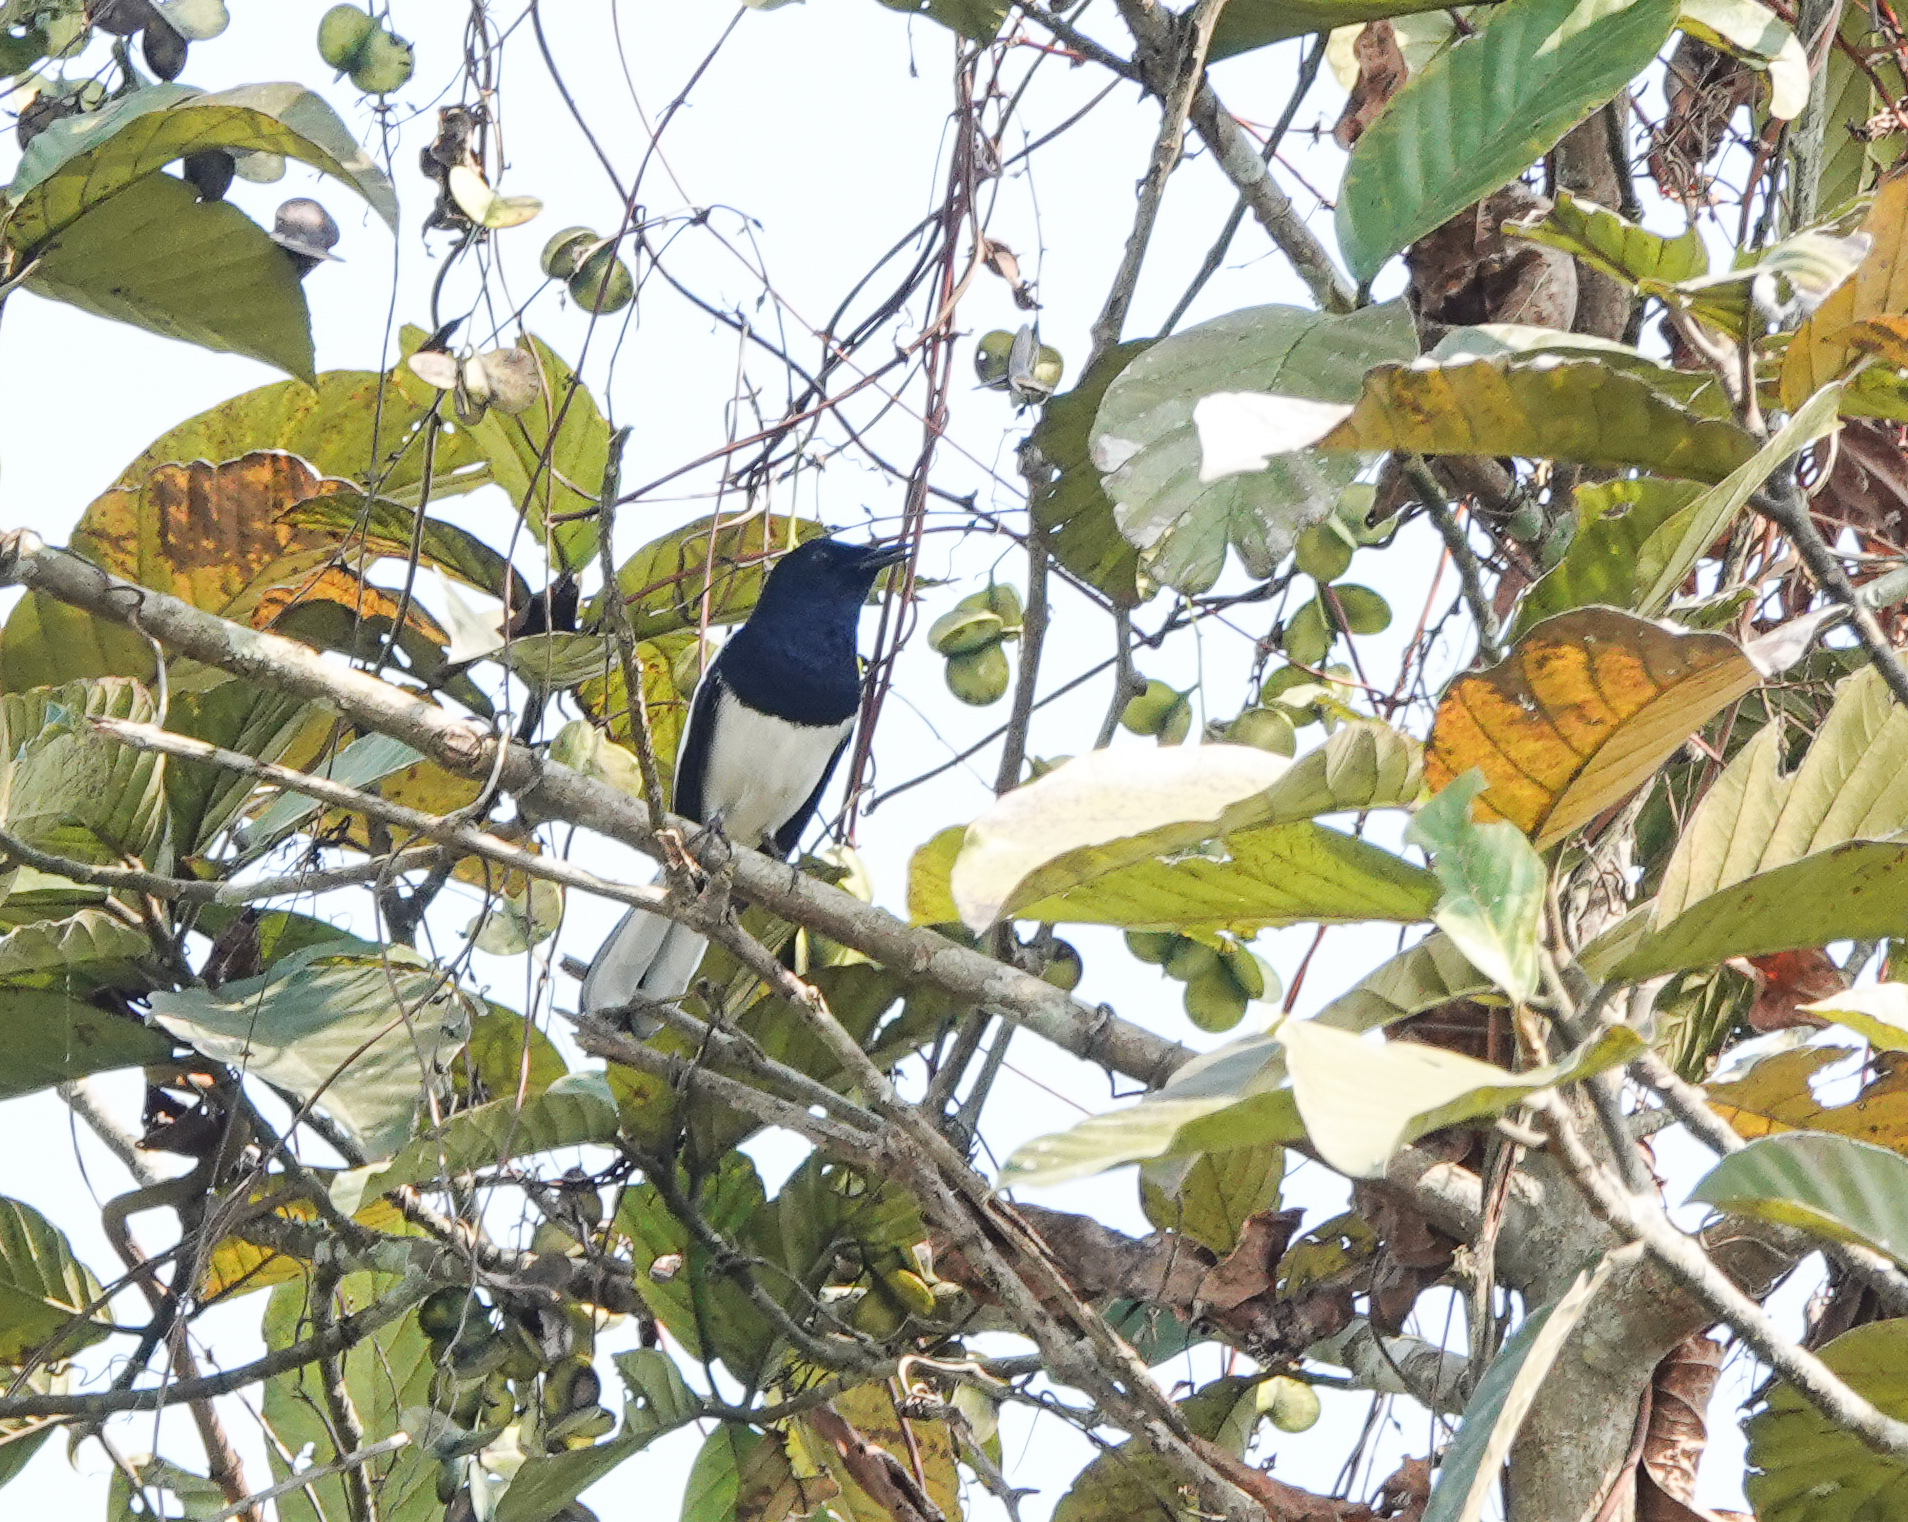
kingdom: Animalia
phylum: Chordata
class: Aves
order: Passeriformes
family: Muscicapidae
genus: Copsychus
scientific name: Copsychus saularis
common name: Oriental magpie-robin
